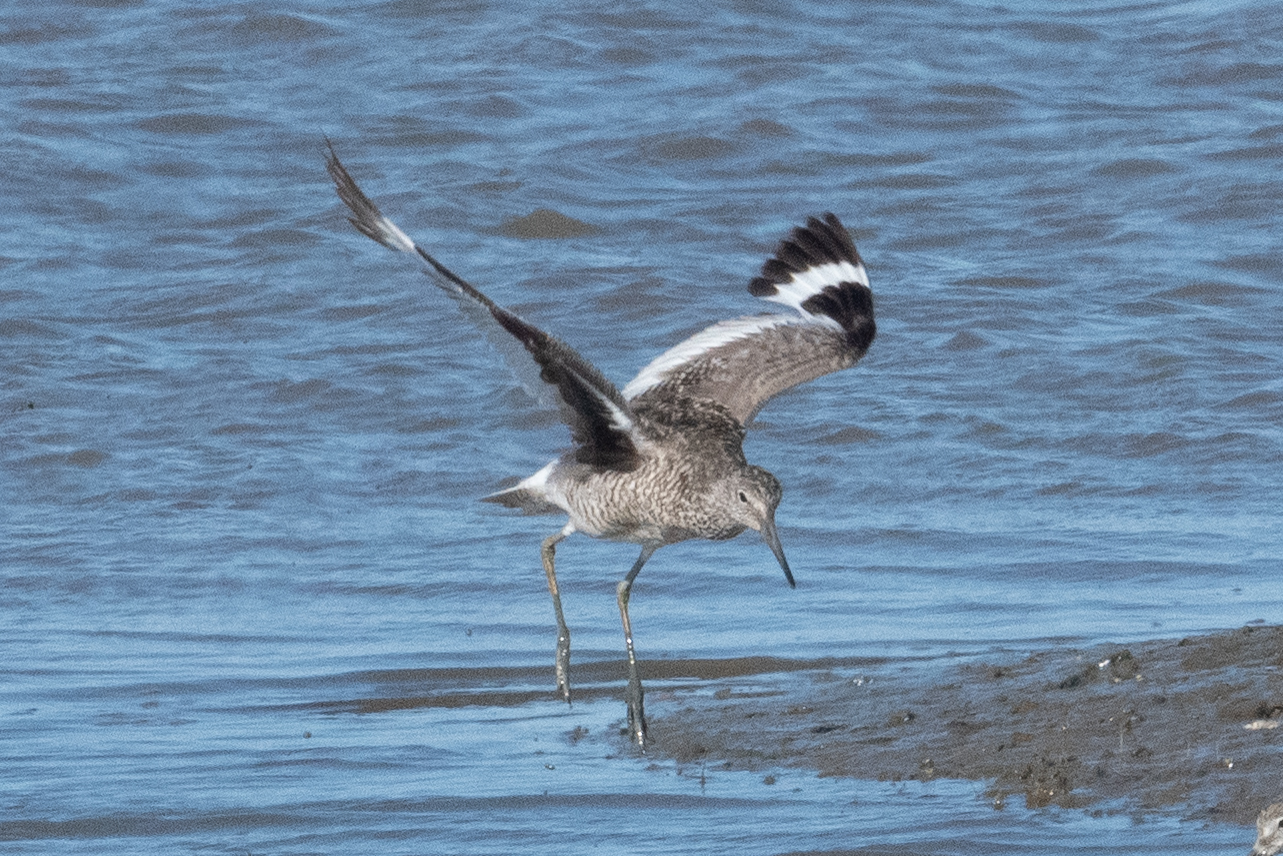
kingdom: Animalia
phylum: Chordata
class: Aves
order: Charadriiformes
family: Scolopacidae
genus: Tringa
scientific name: Tringa semipalmata
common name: Willet
